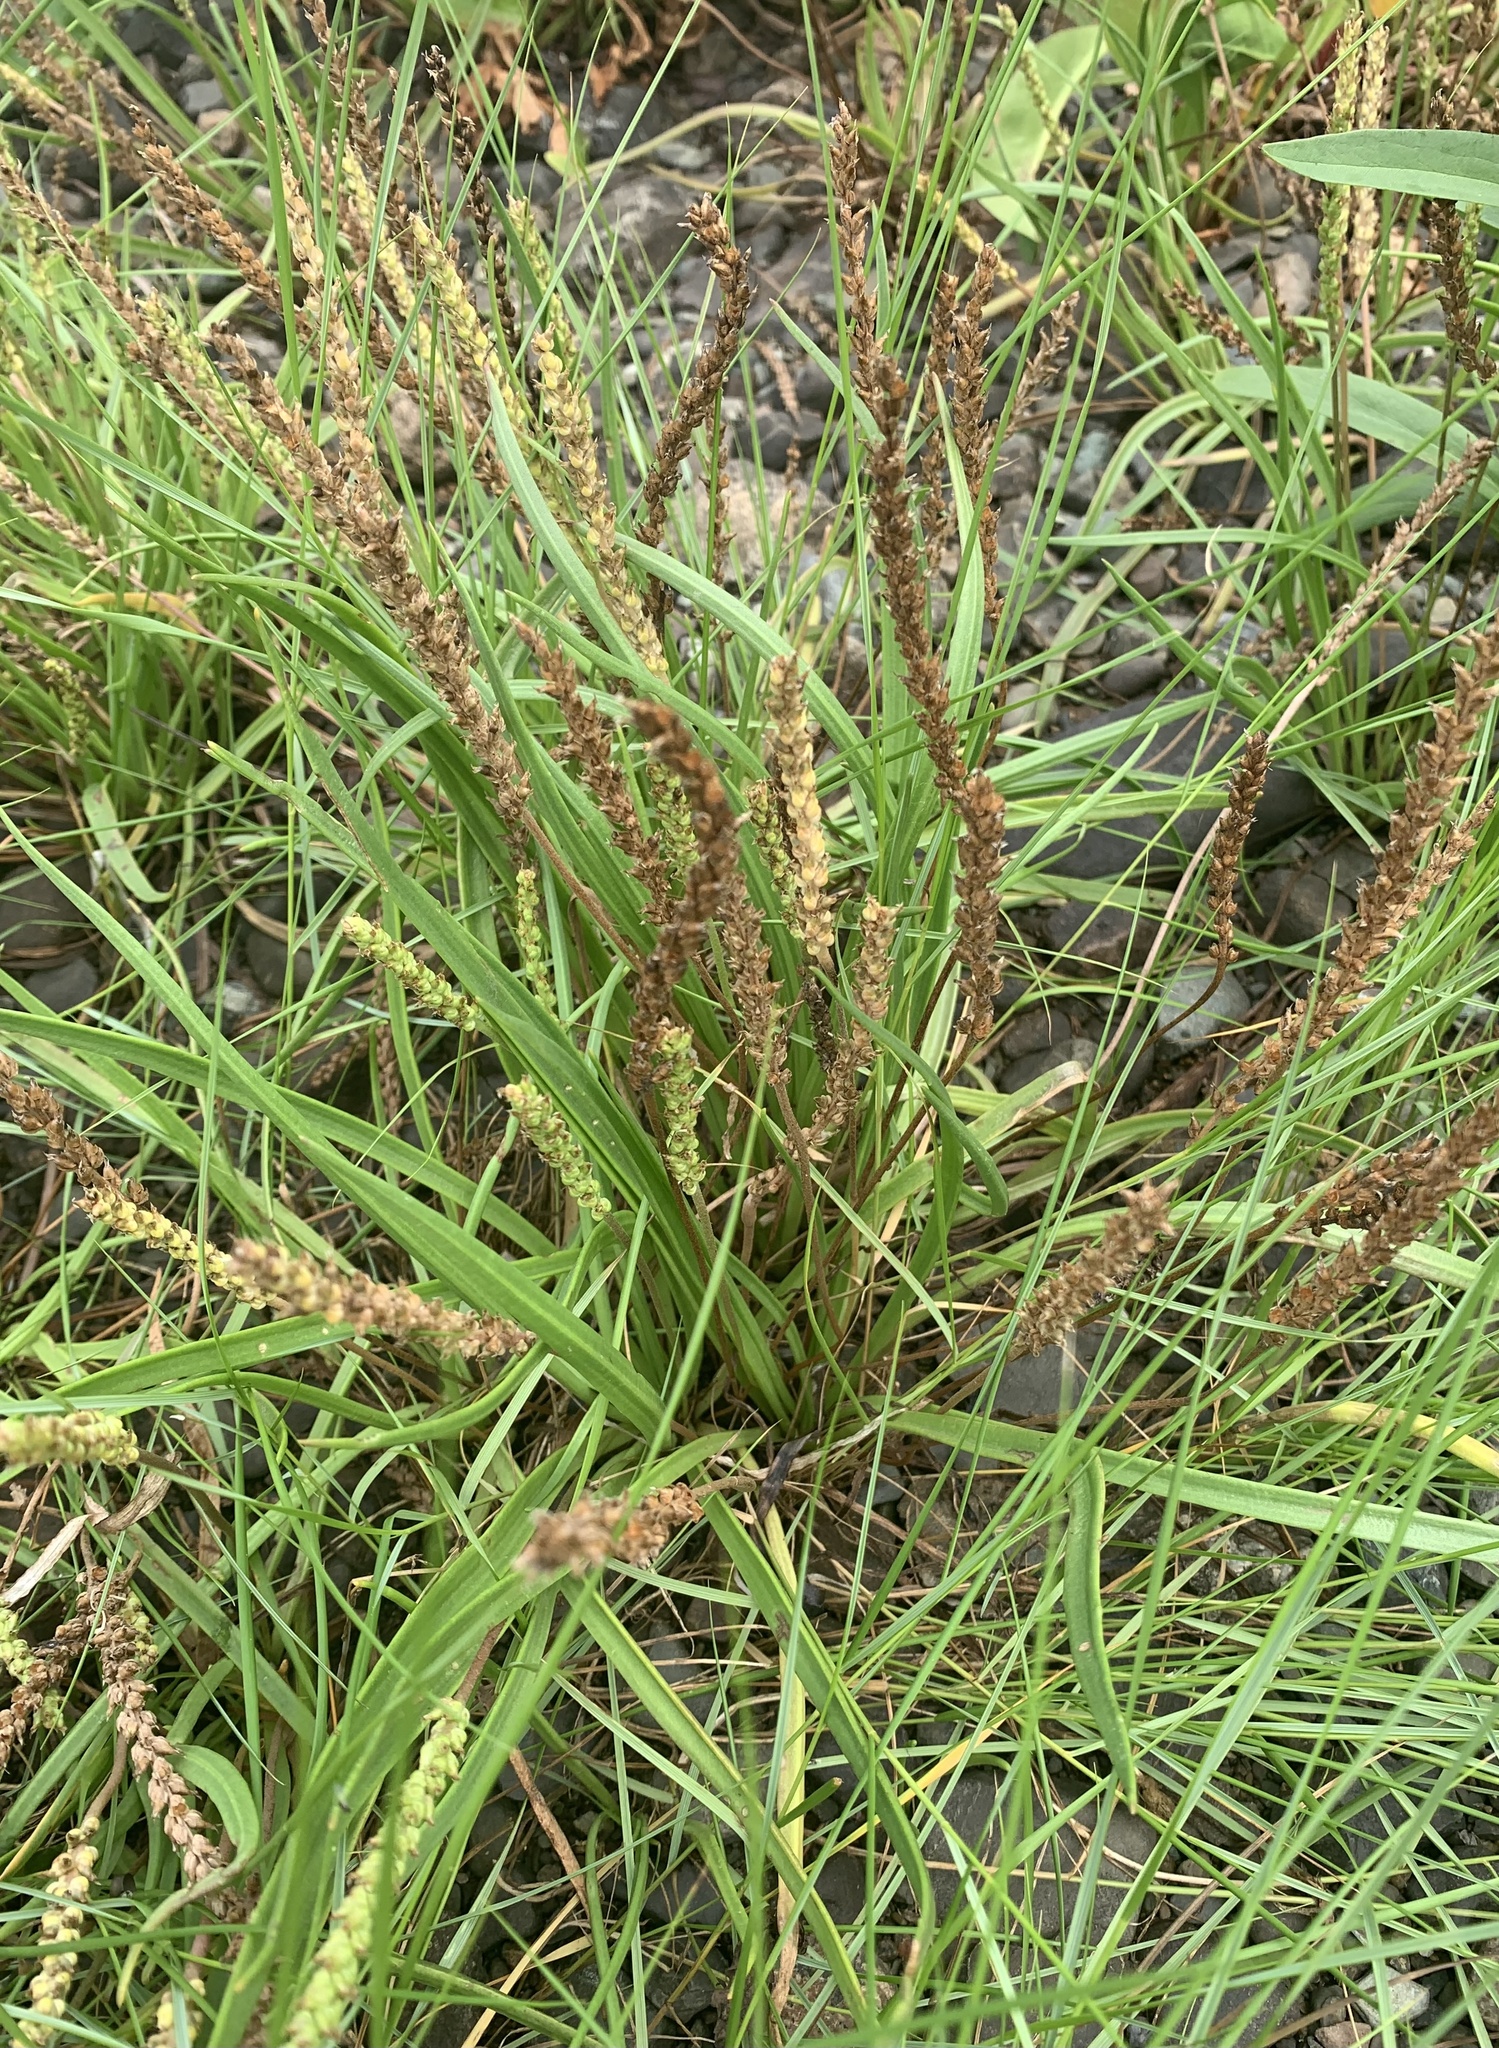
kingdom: Plantae
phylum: Tracheophyta
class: Magnoliopsida
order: Lamiales
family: Plantaginaceae
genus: Plantago
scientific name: Plantago maritima
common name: Sea plantain
